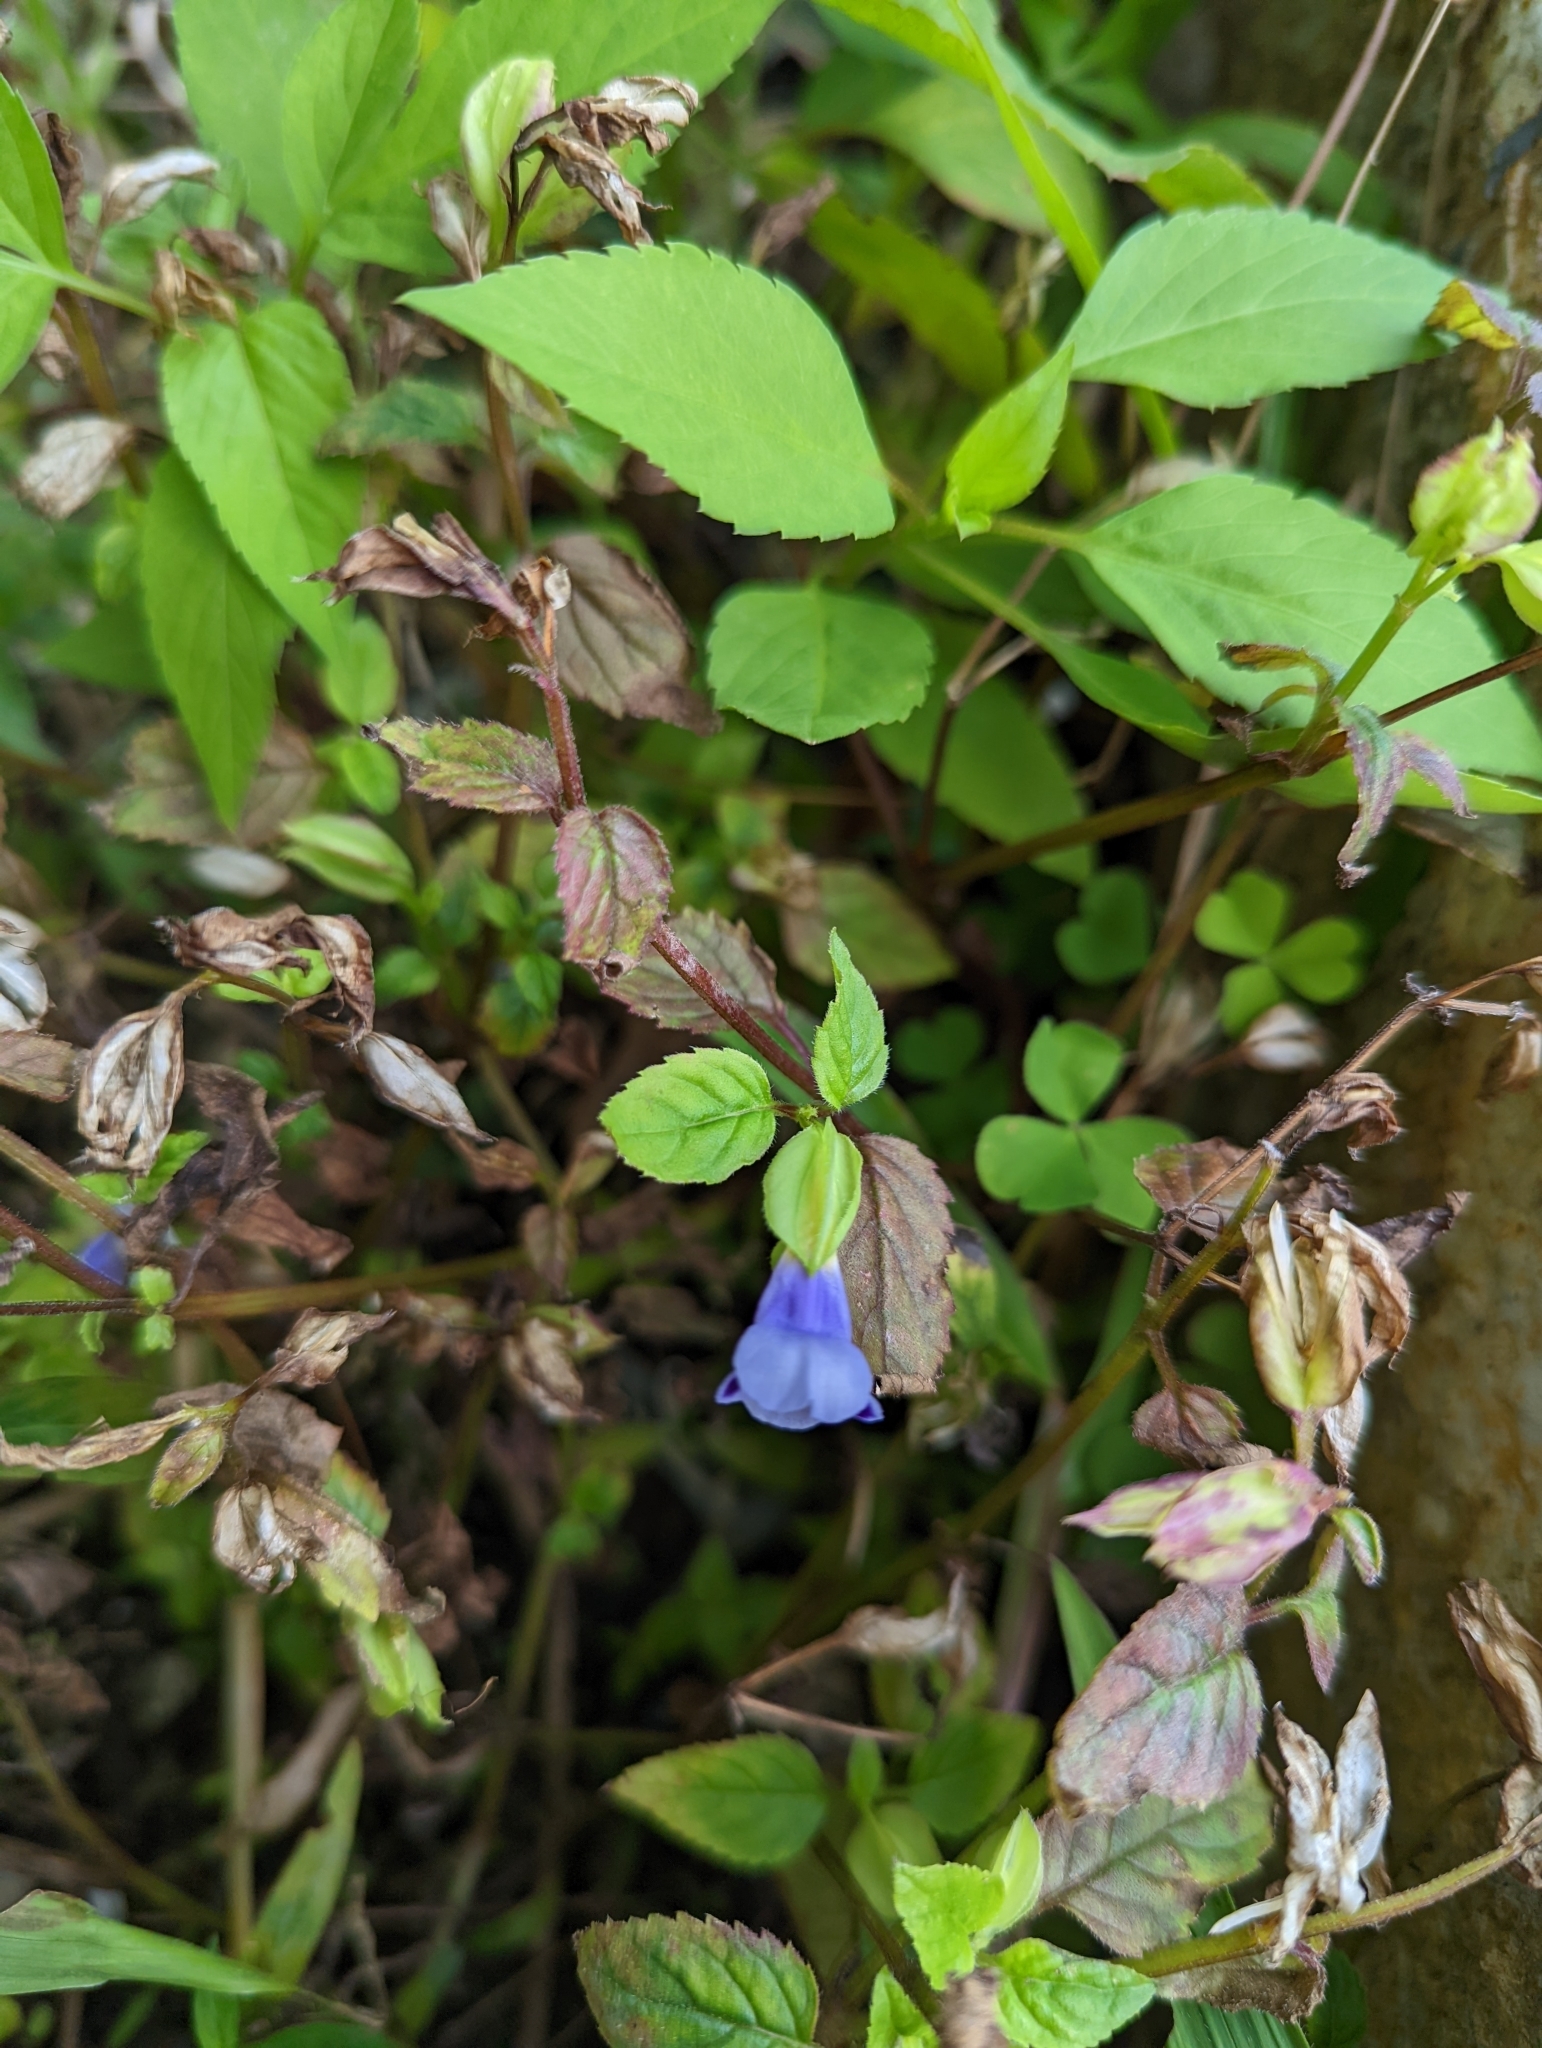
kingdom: Plantae
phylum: Tracheophyta
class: Magnoliopsida
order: Lamiales
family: Linderniaceae
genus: Torenia
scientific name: Torenia fournieri
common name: Bluewings
